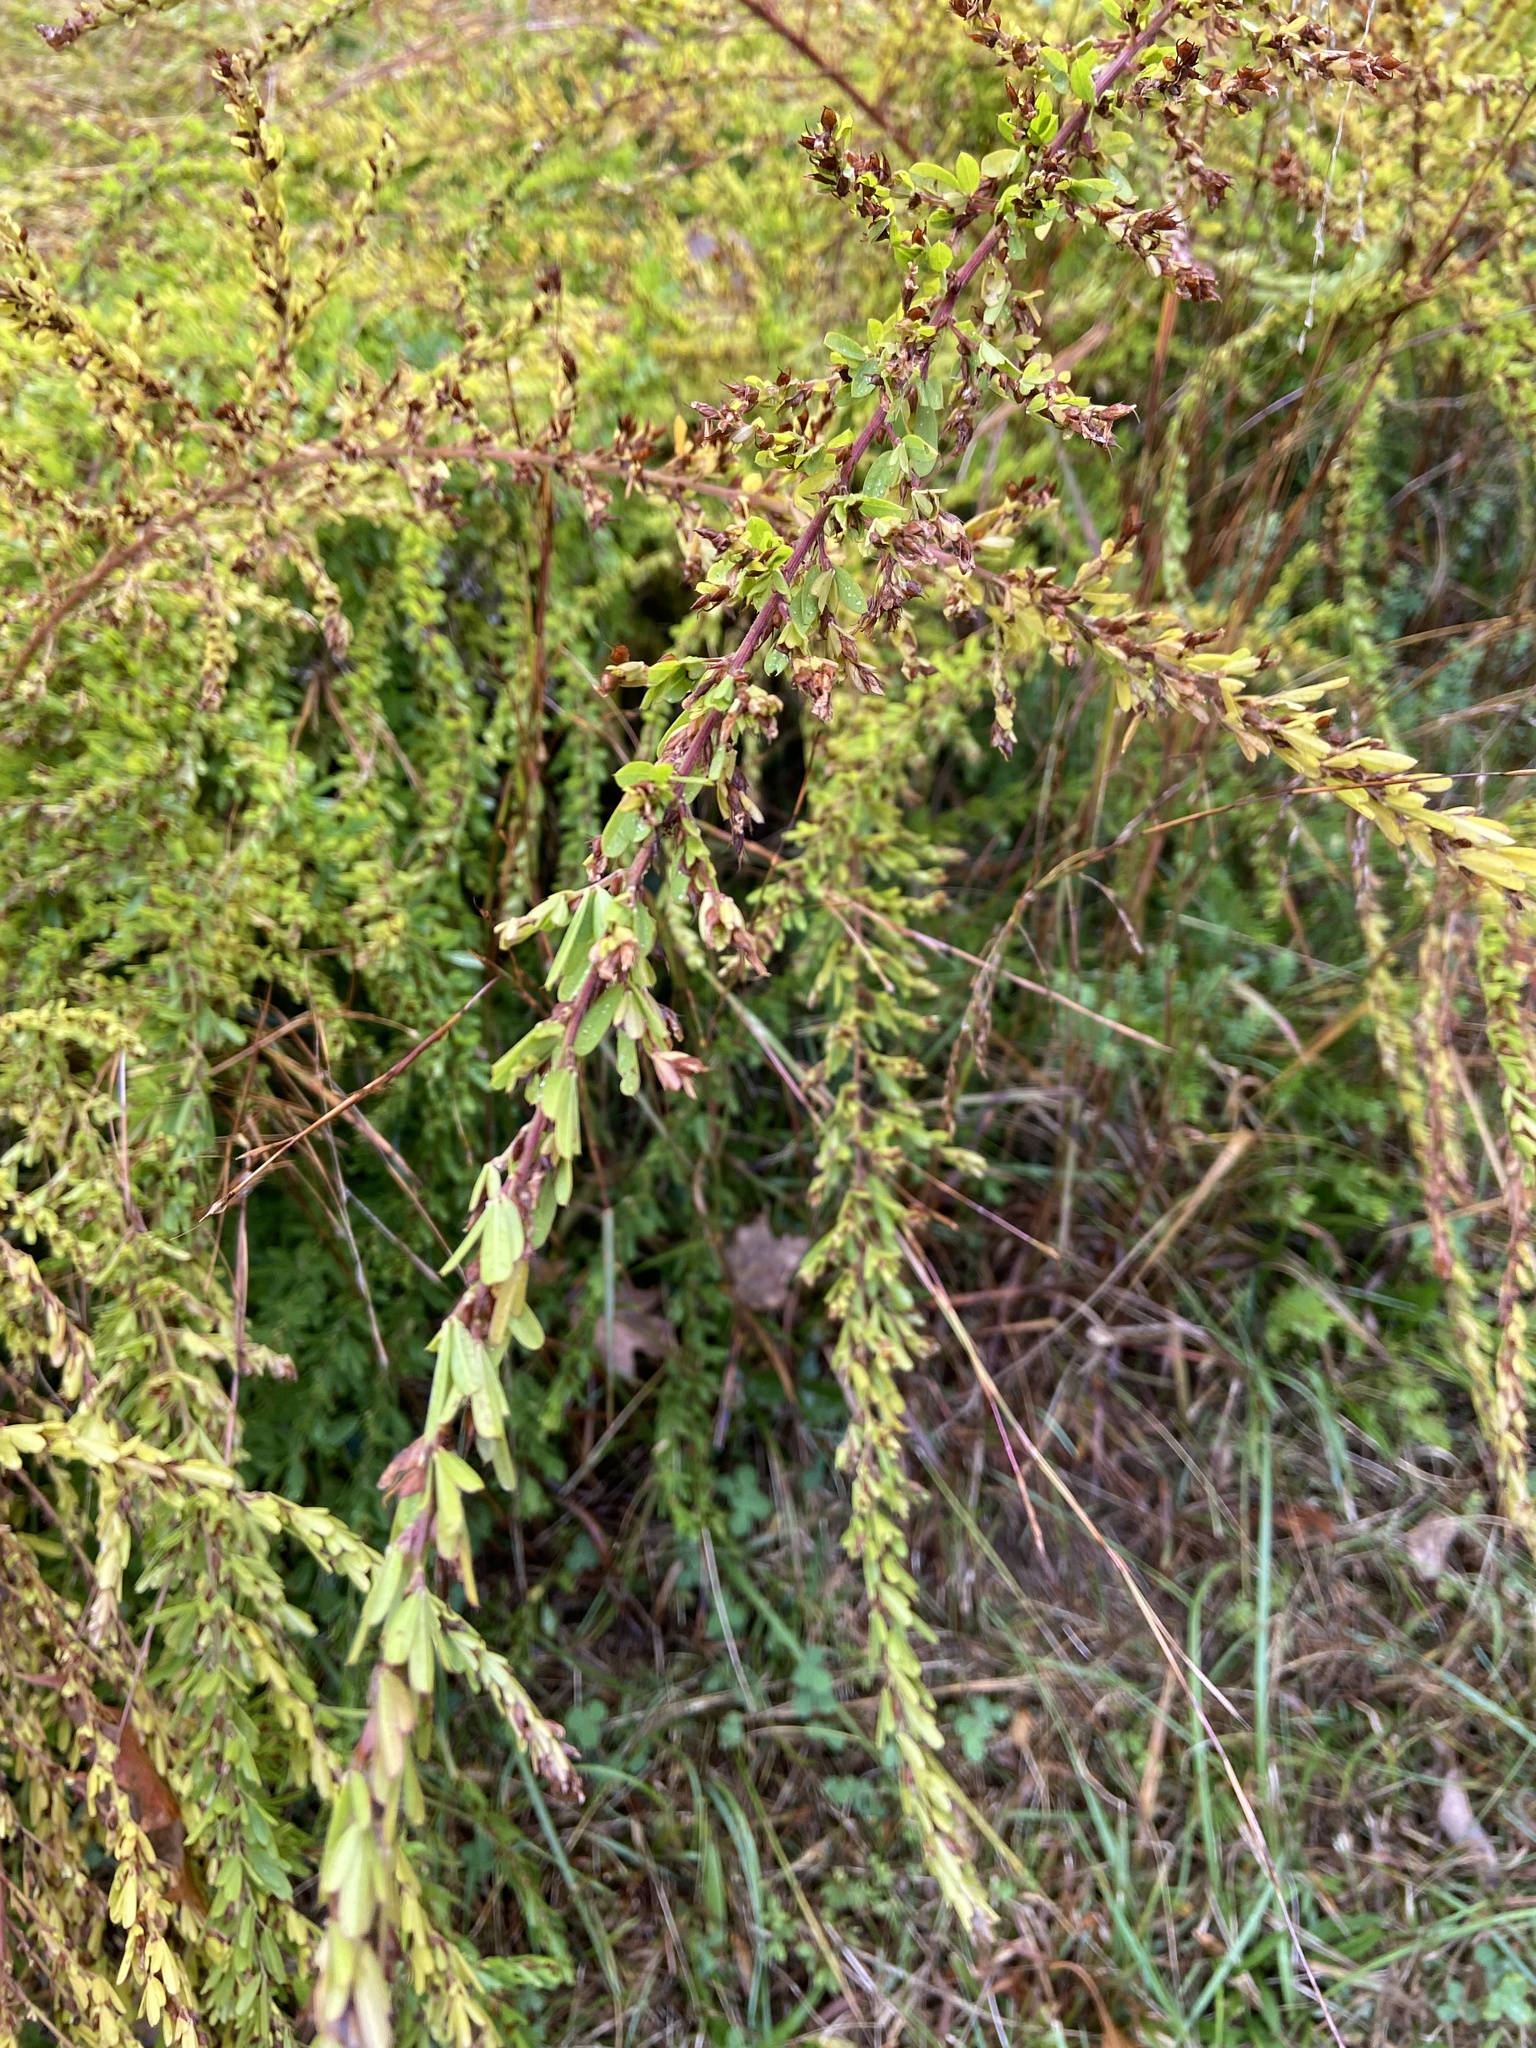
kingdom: Plantae
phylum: Tracheophyta
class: Magnoliopsida
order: Fabales
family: Fabaceae
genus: Lespedeza
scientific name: Lespedeza cuneata
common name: Chinese bush-clover
